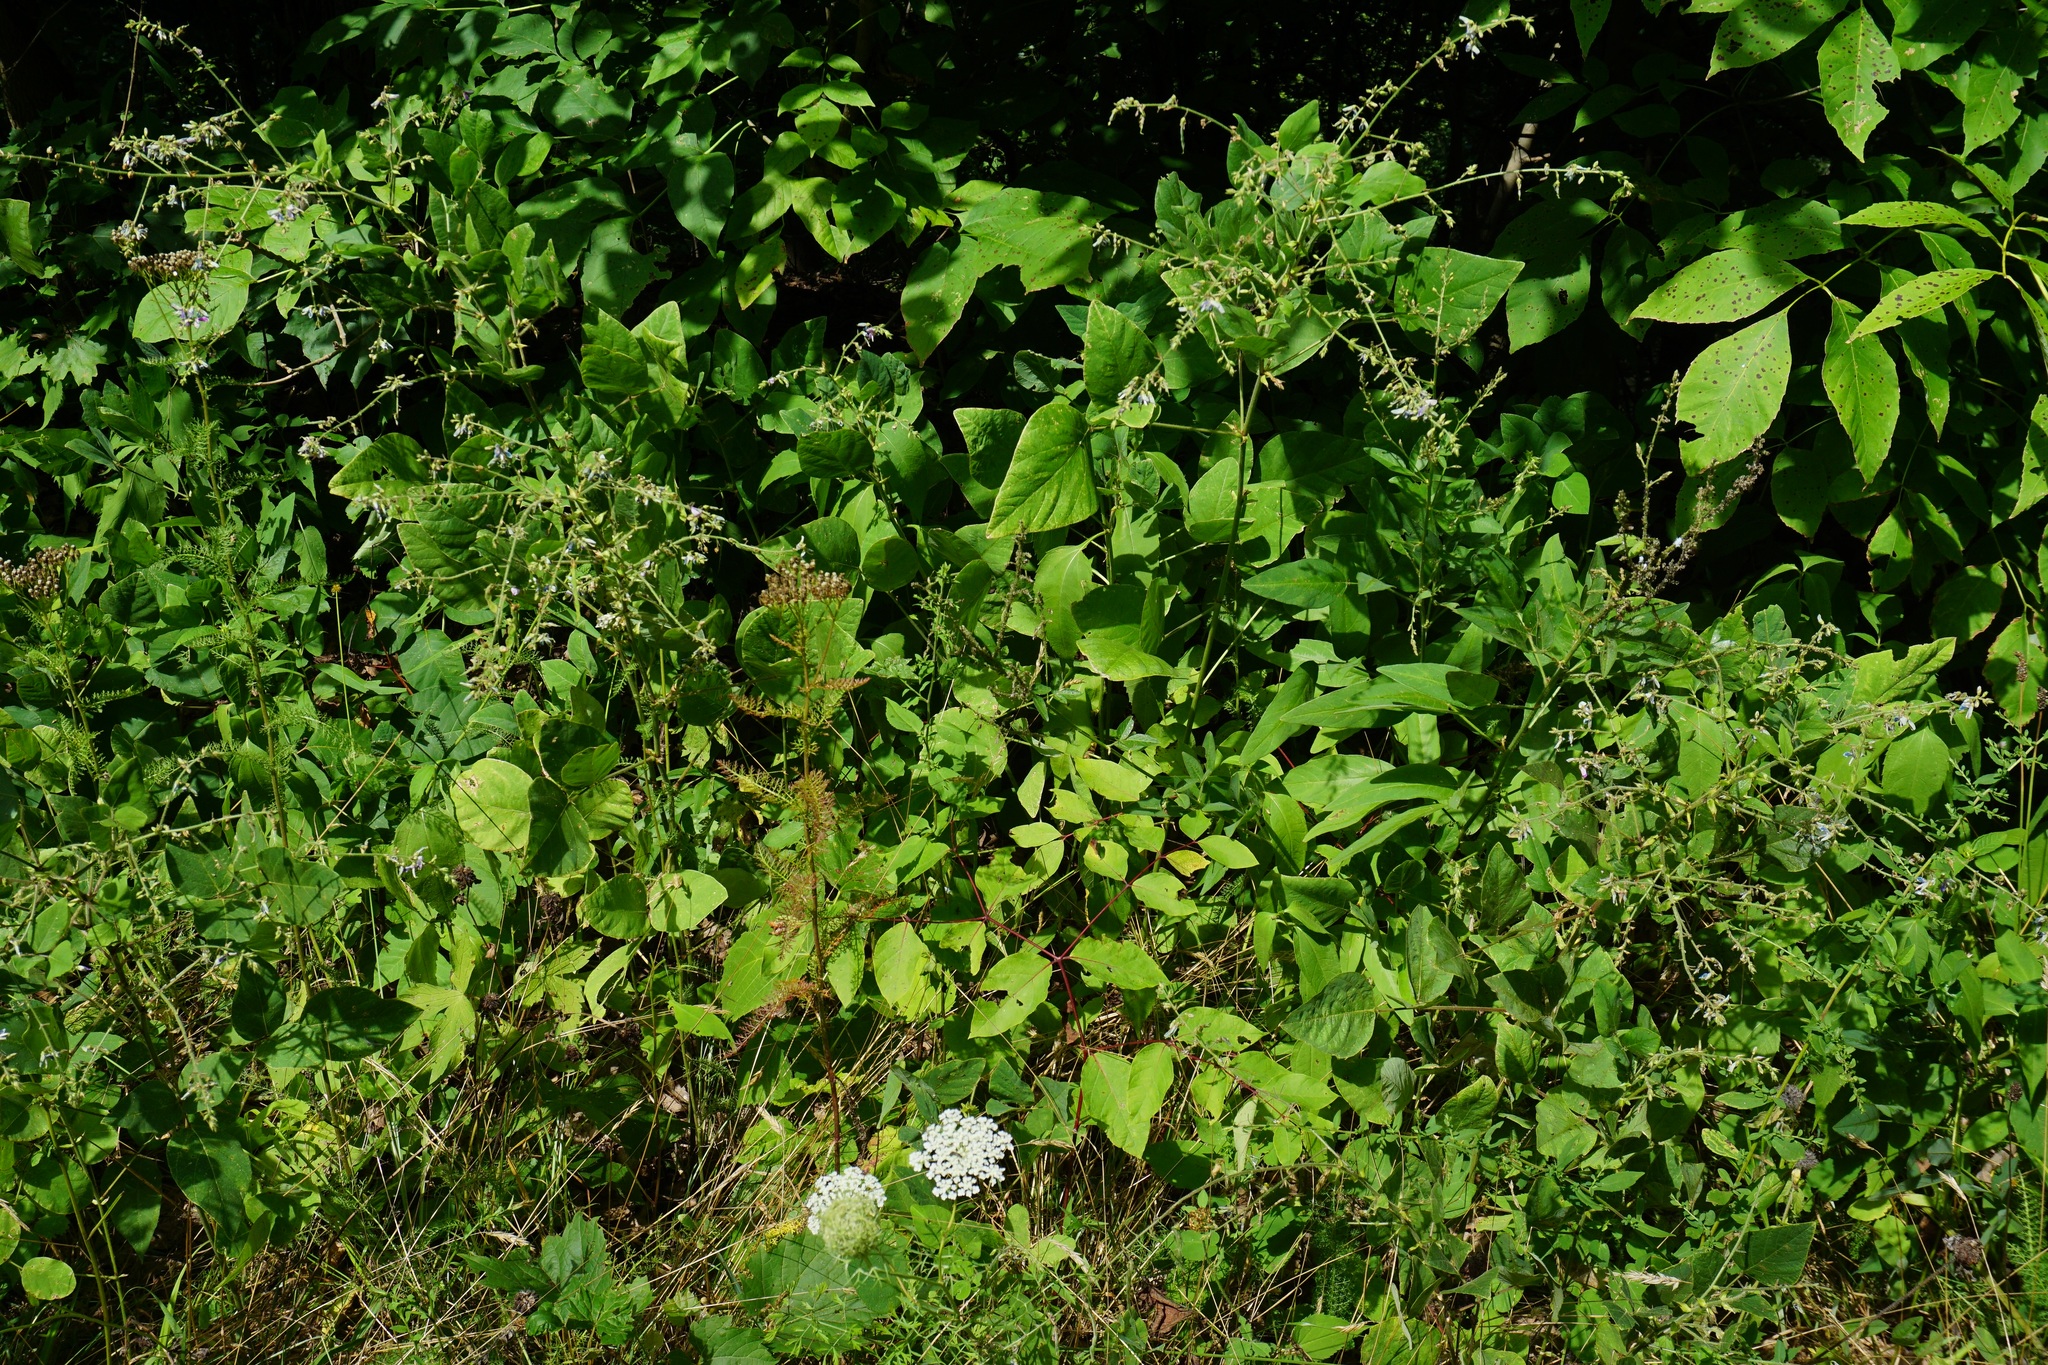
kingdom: Plantae
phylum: Tracheophyta
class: Magnoliopsida
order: Fabales
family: Fabaceae
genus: Desmodium
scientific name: Desmodium canescens
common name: Hoary tick-clover
